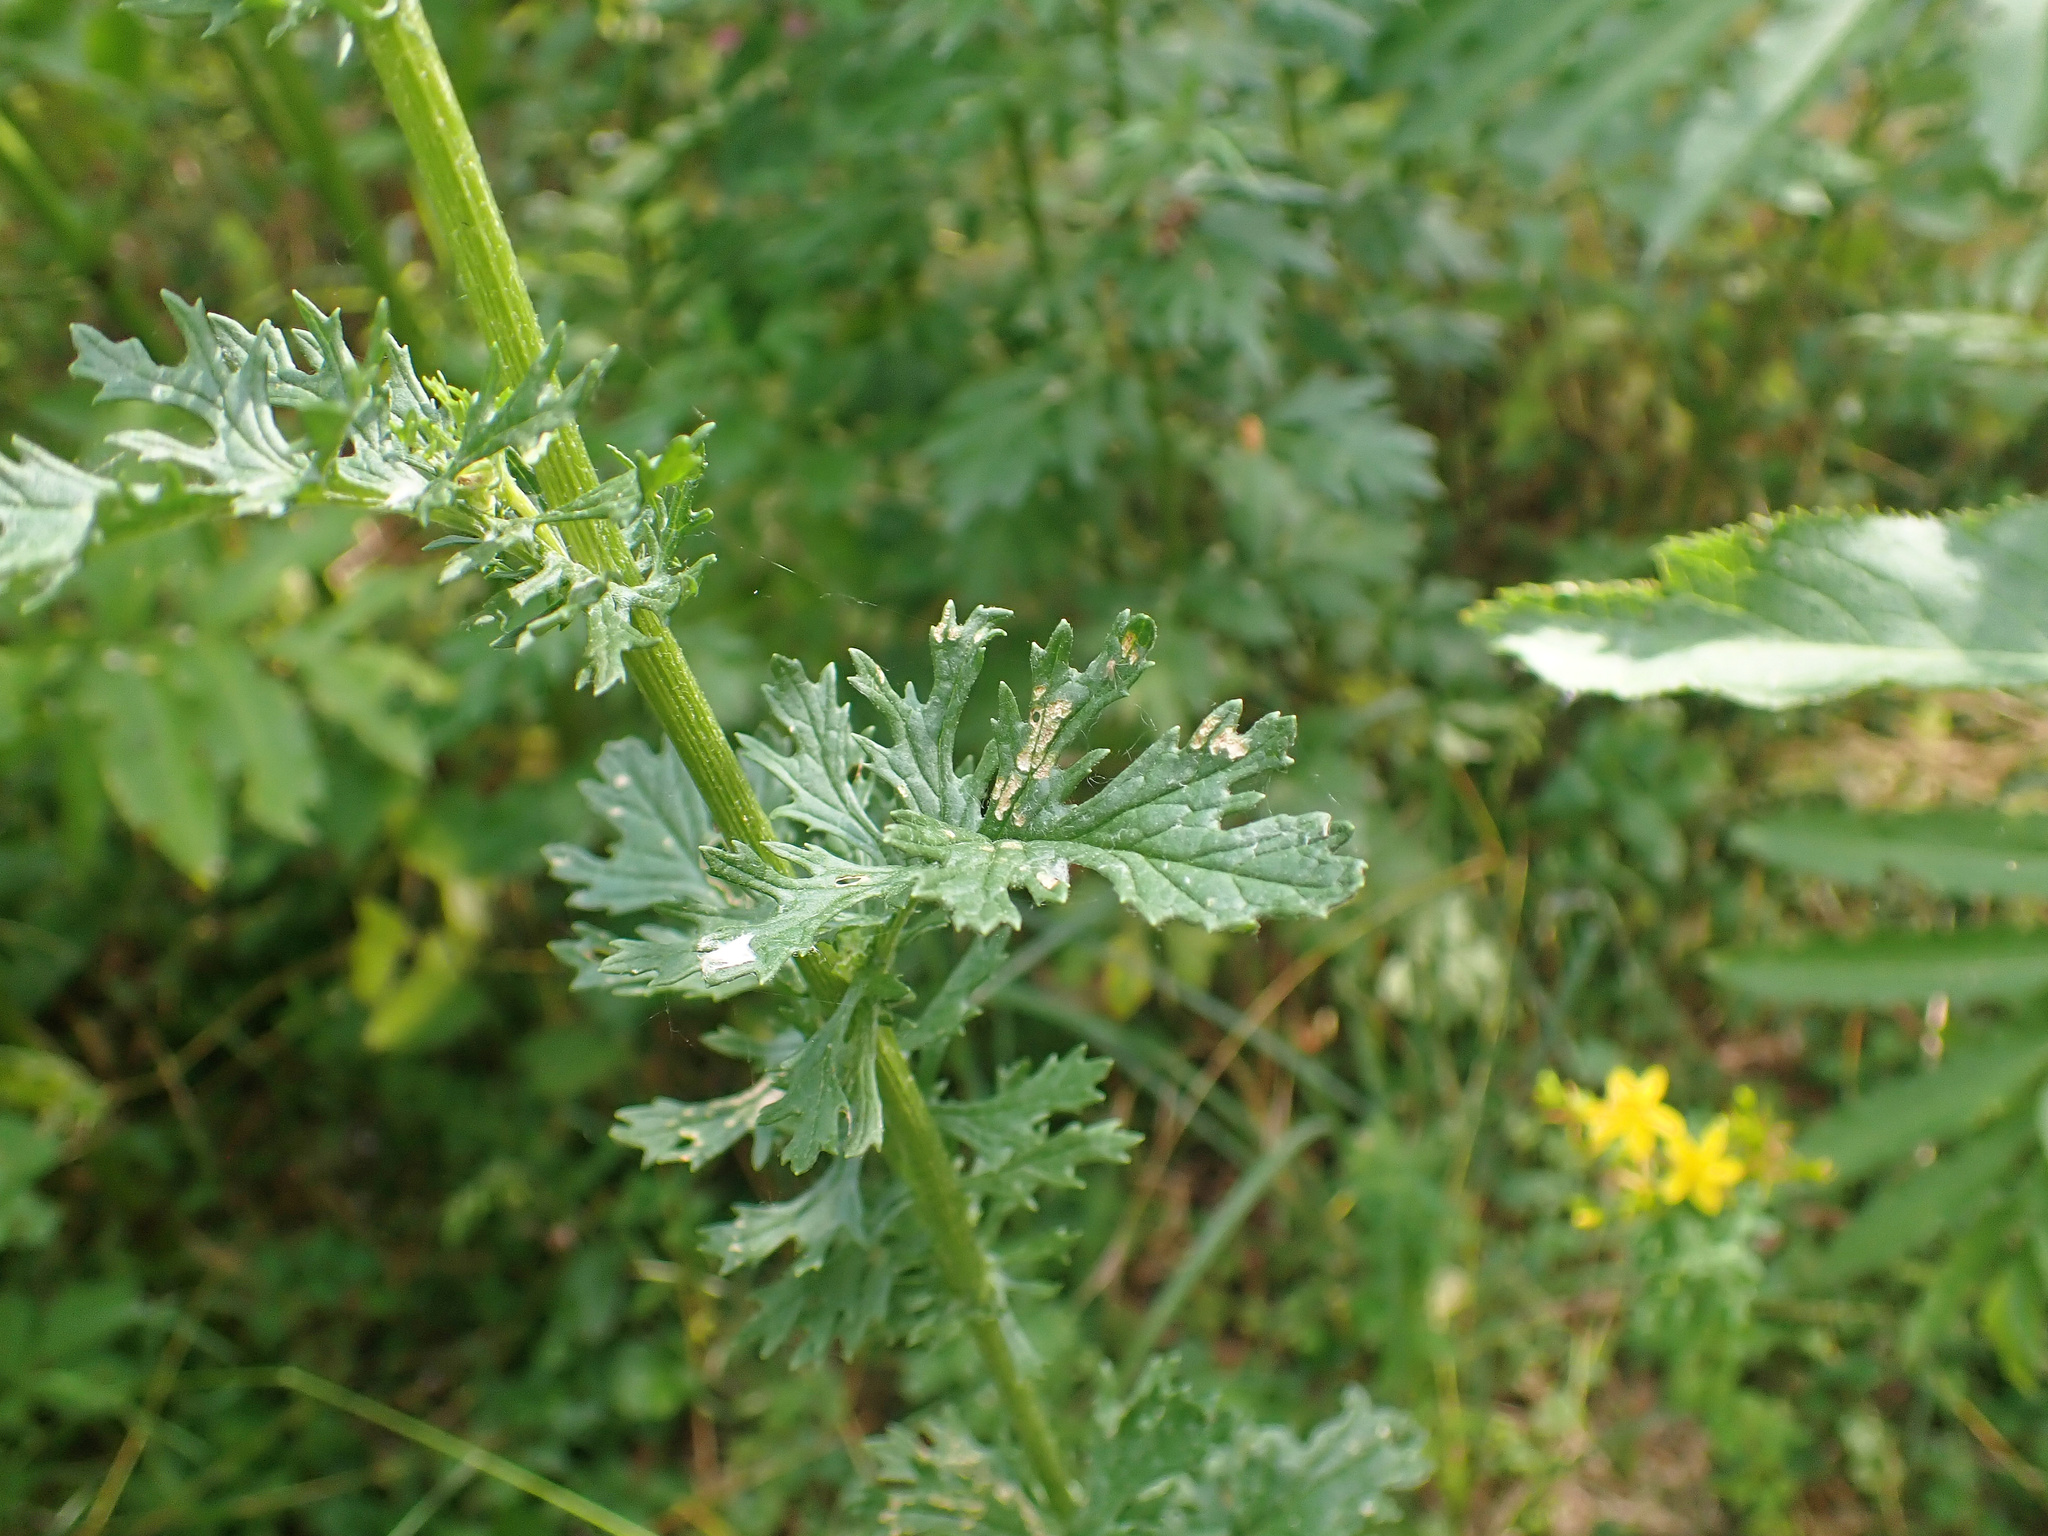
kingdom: Plantae
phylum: Tracheophyta
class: Magnoliopsida
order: Asterales
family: Asteraceae
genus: Jacobaea
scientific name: Jacobaea vulgaris
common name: Stinking willie
